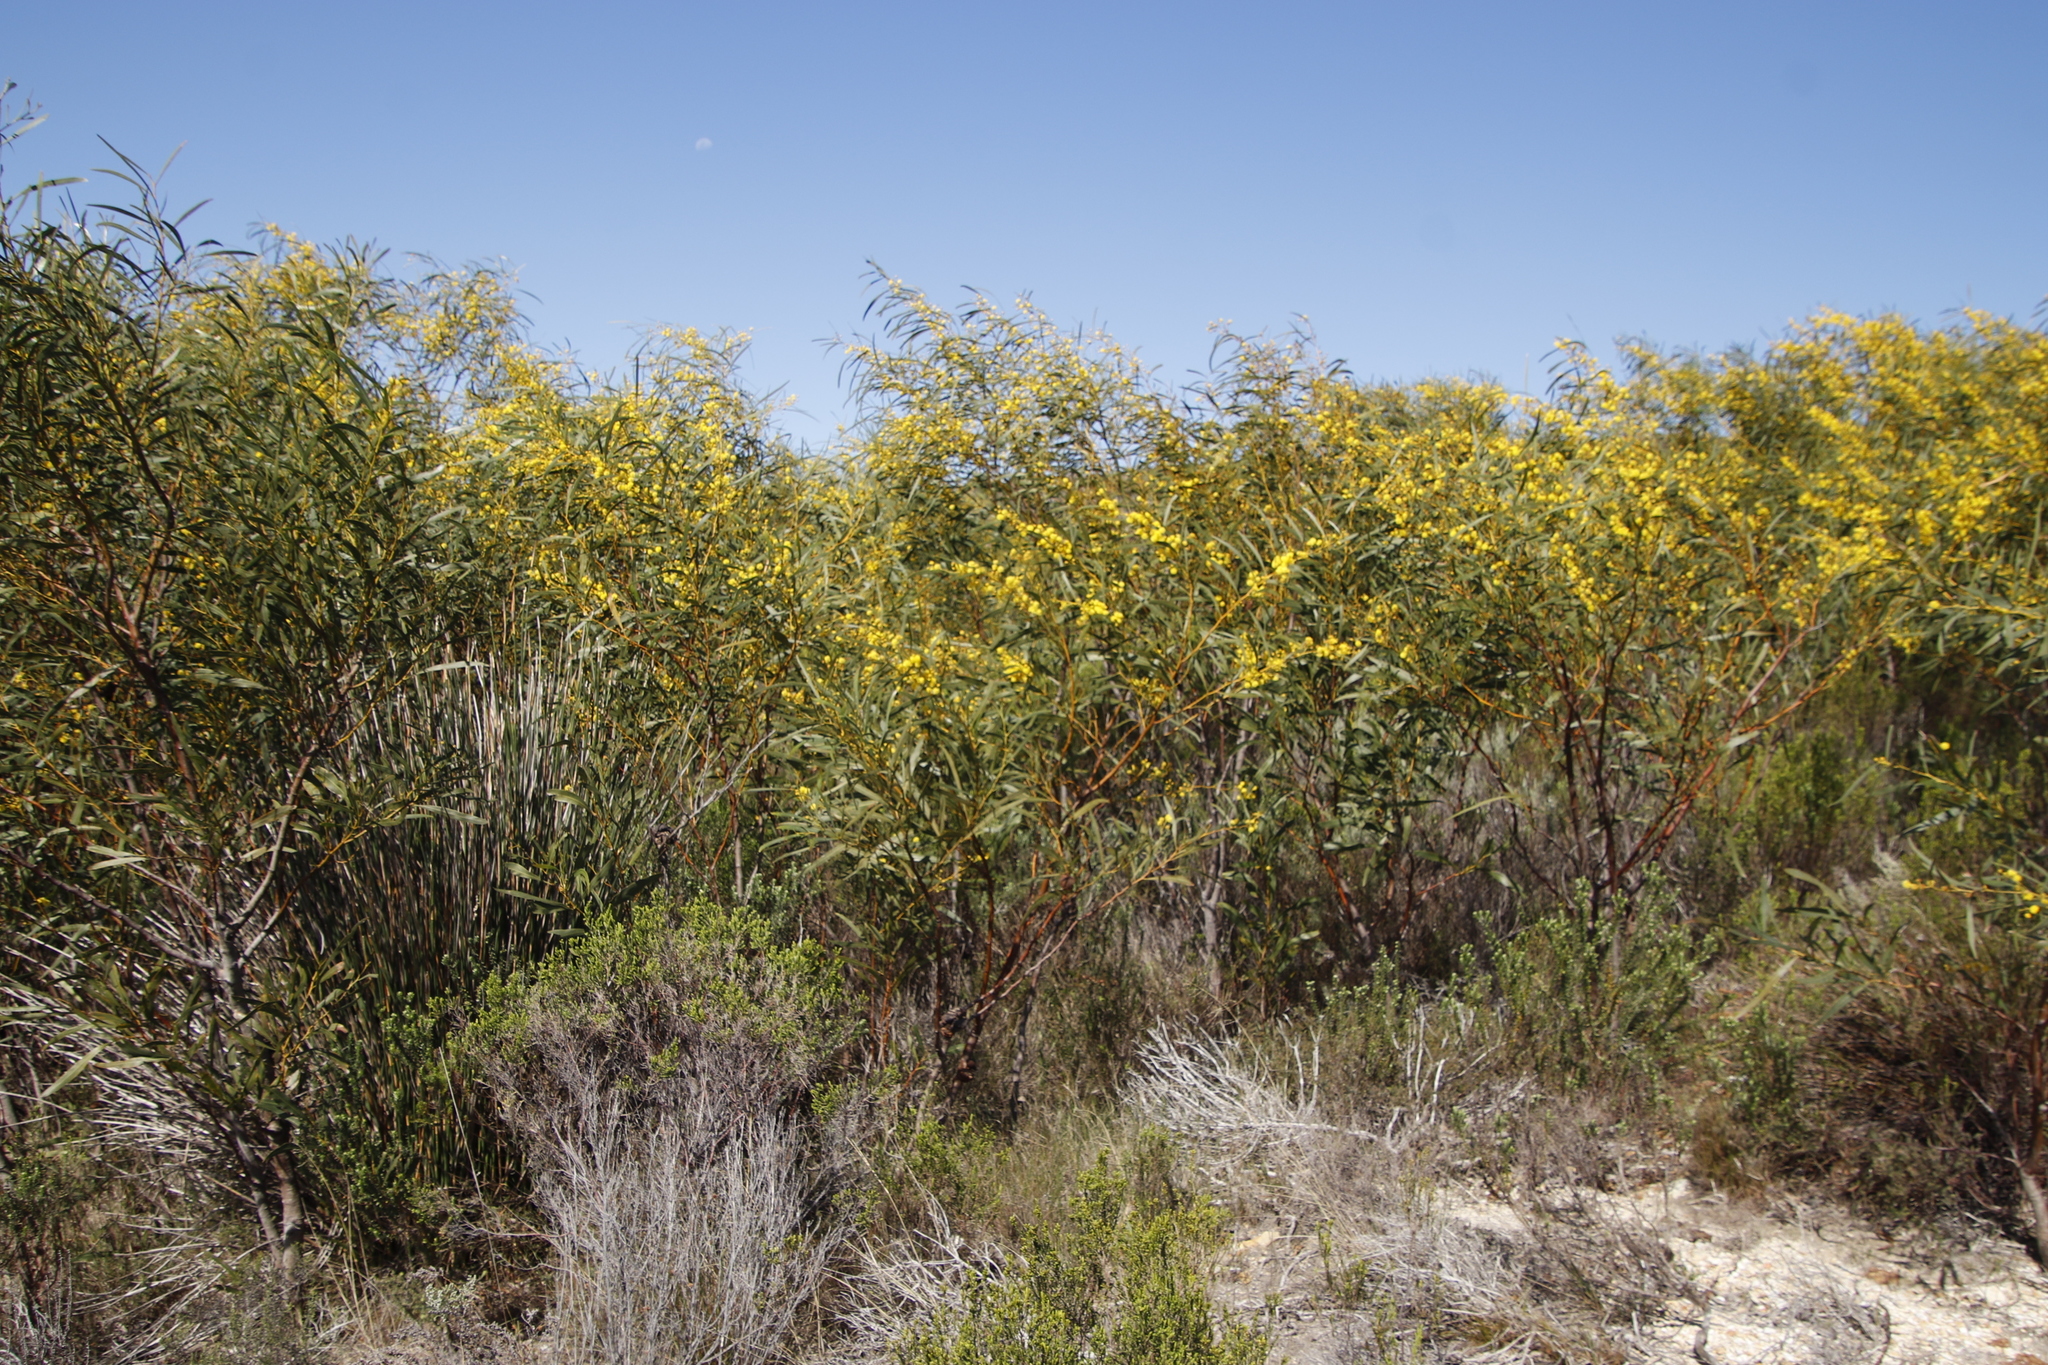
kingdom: Plantae
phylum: Tracheophyta
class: Magnoliopsida
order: Fabales
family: Fabaceae
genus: Acacia
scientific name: Acacia saligna
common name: Orange wattle
